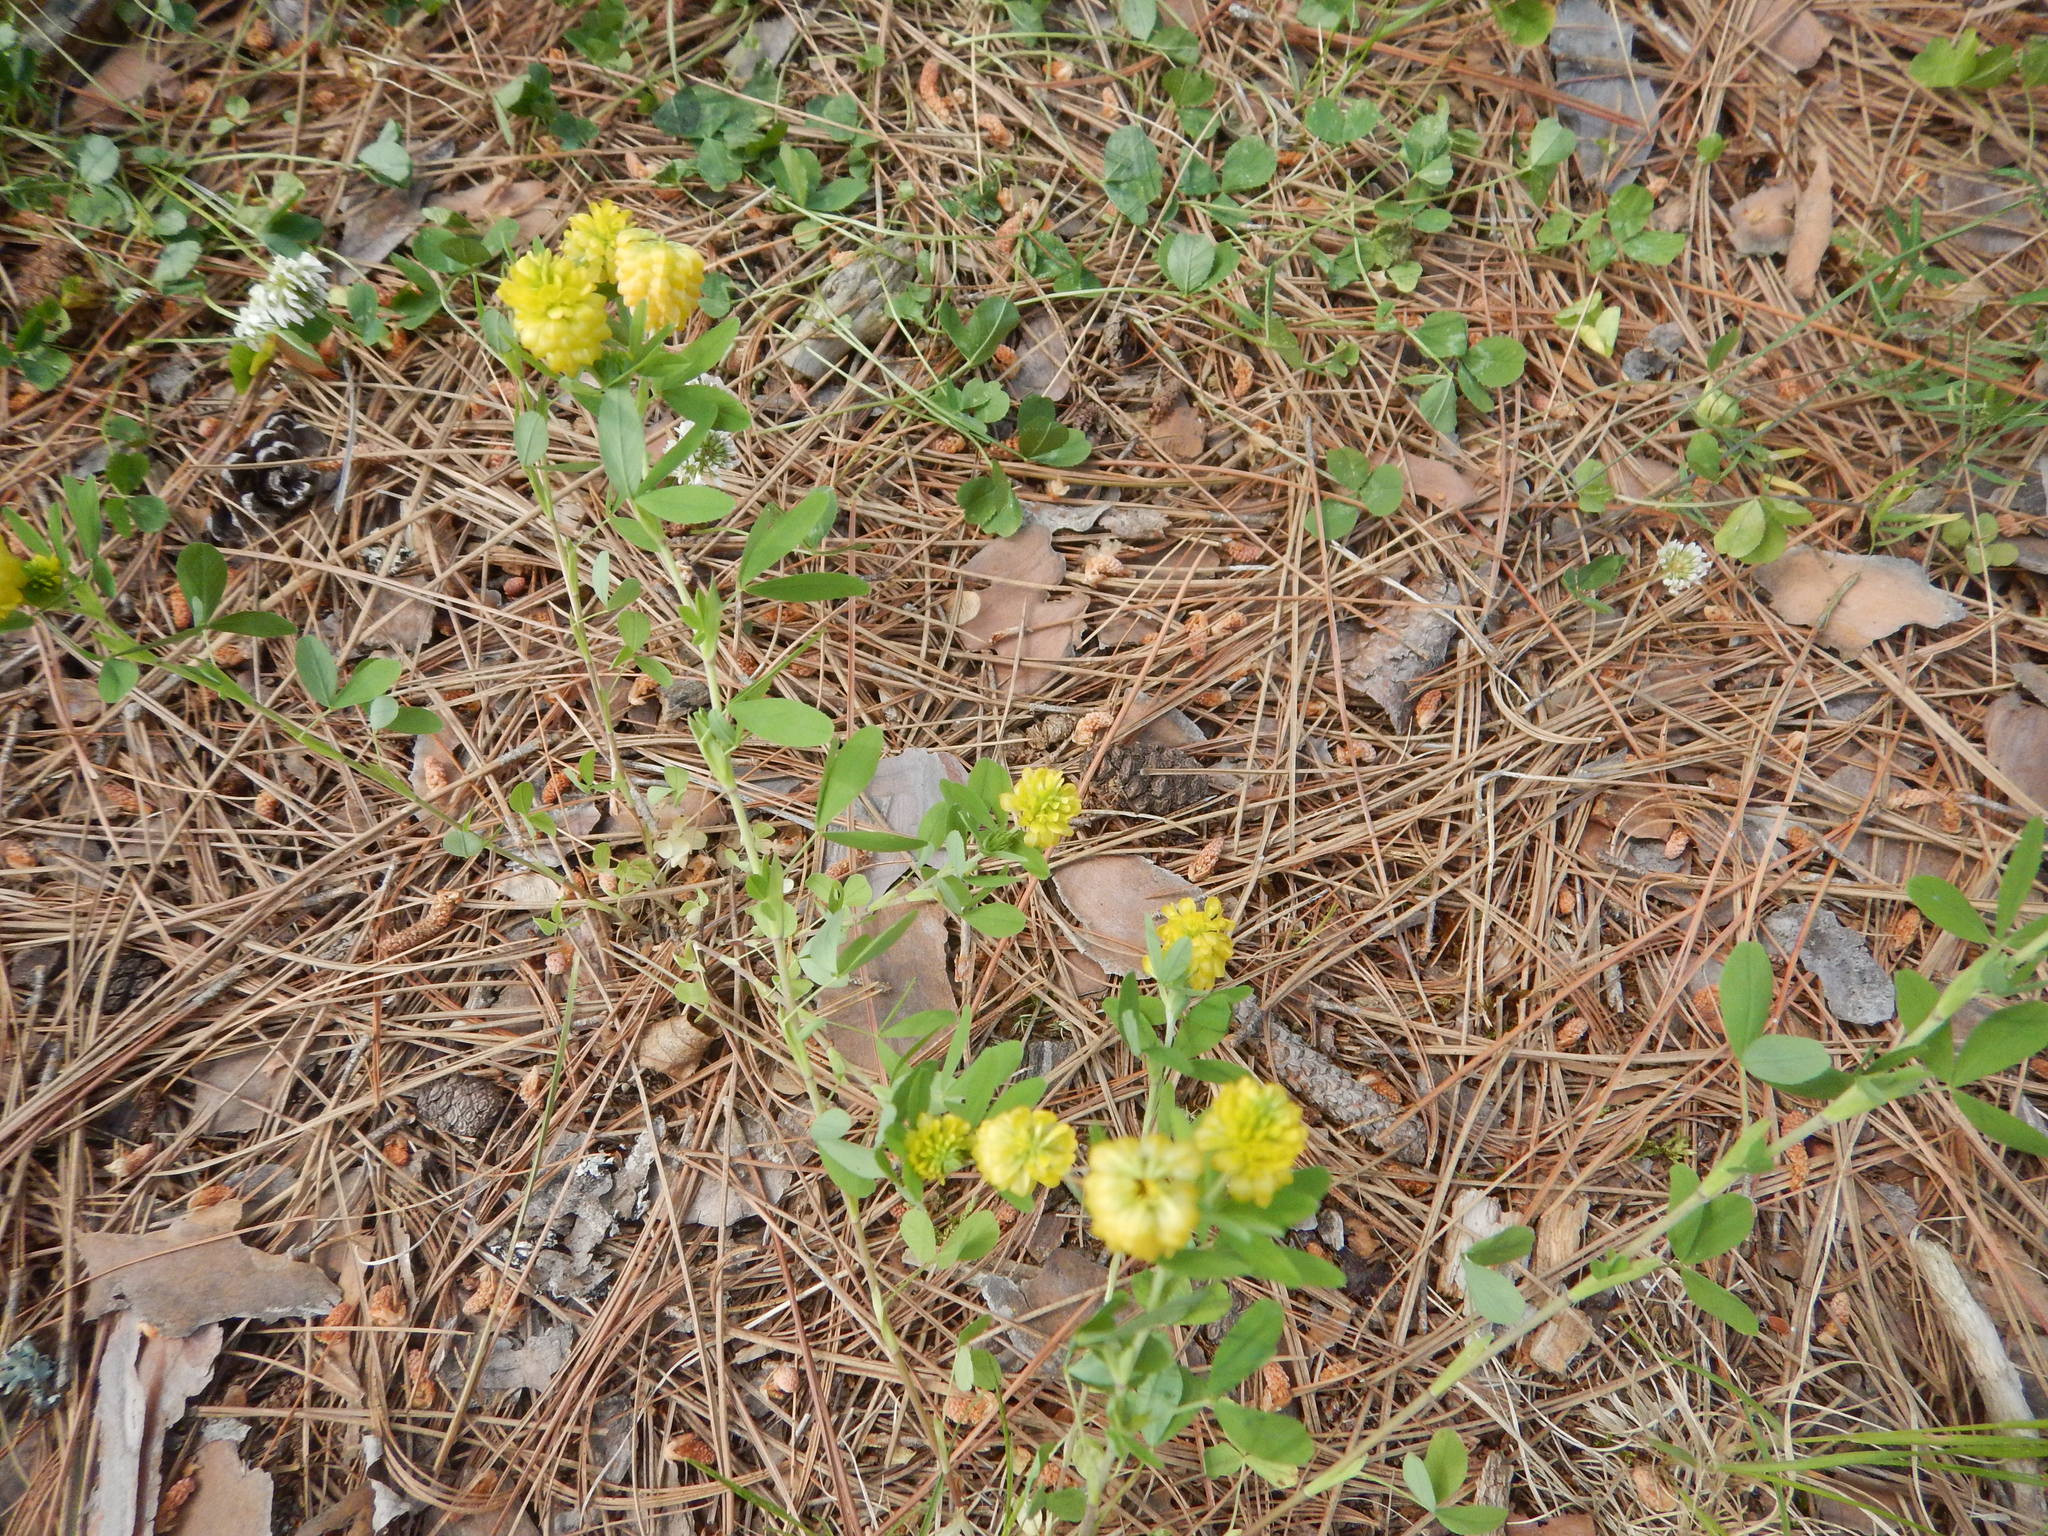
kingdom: Plantae
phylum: Tracheophyta
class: Magnoliopsida
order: Fabales
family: Fabaceae
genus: Trifolium
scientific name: Trifolium campestre
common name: Field clover
